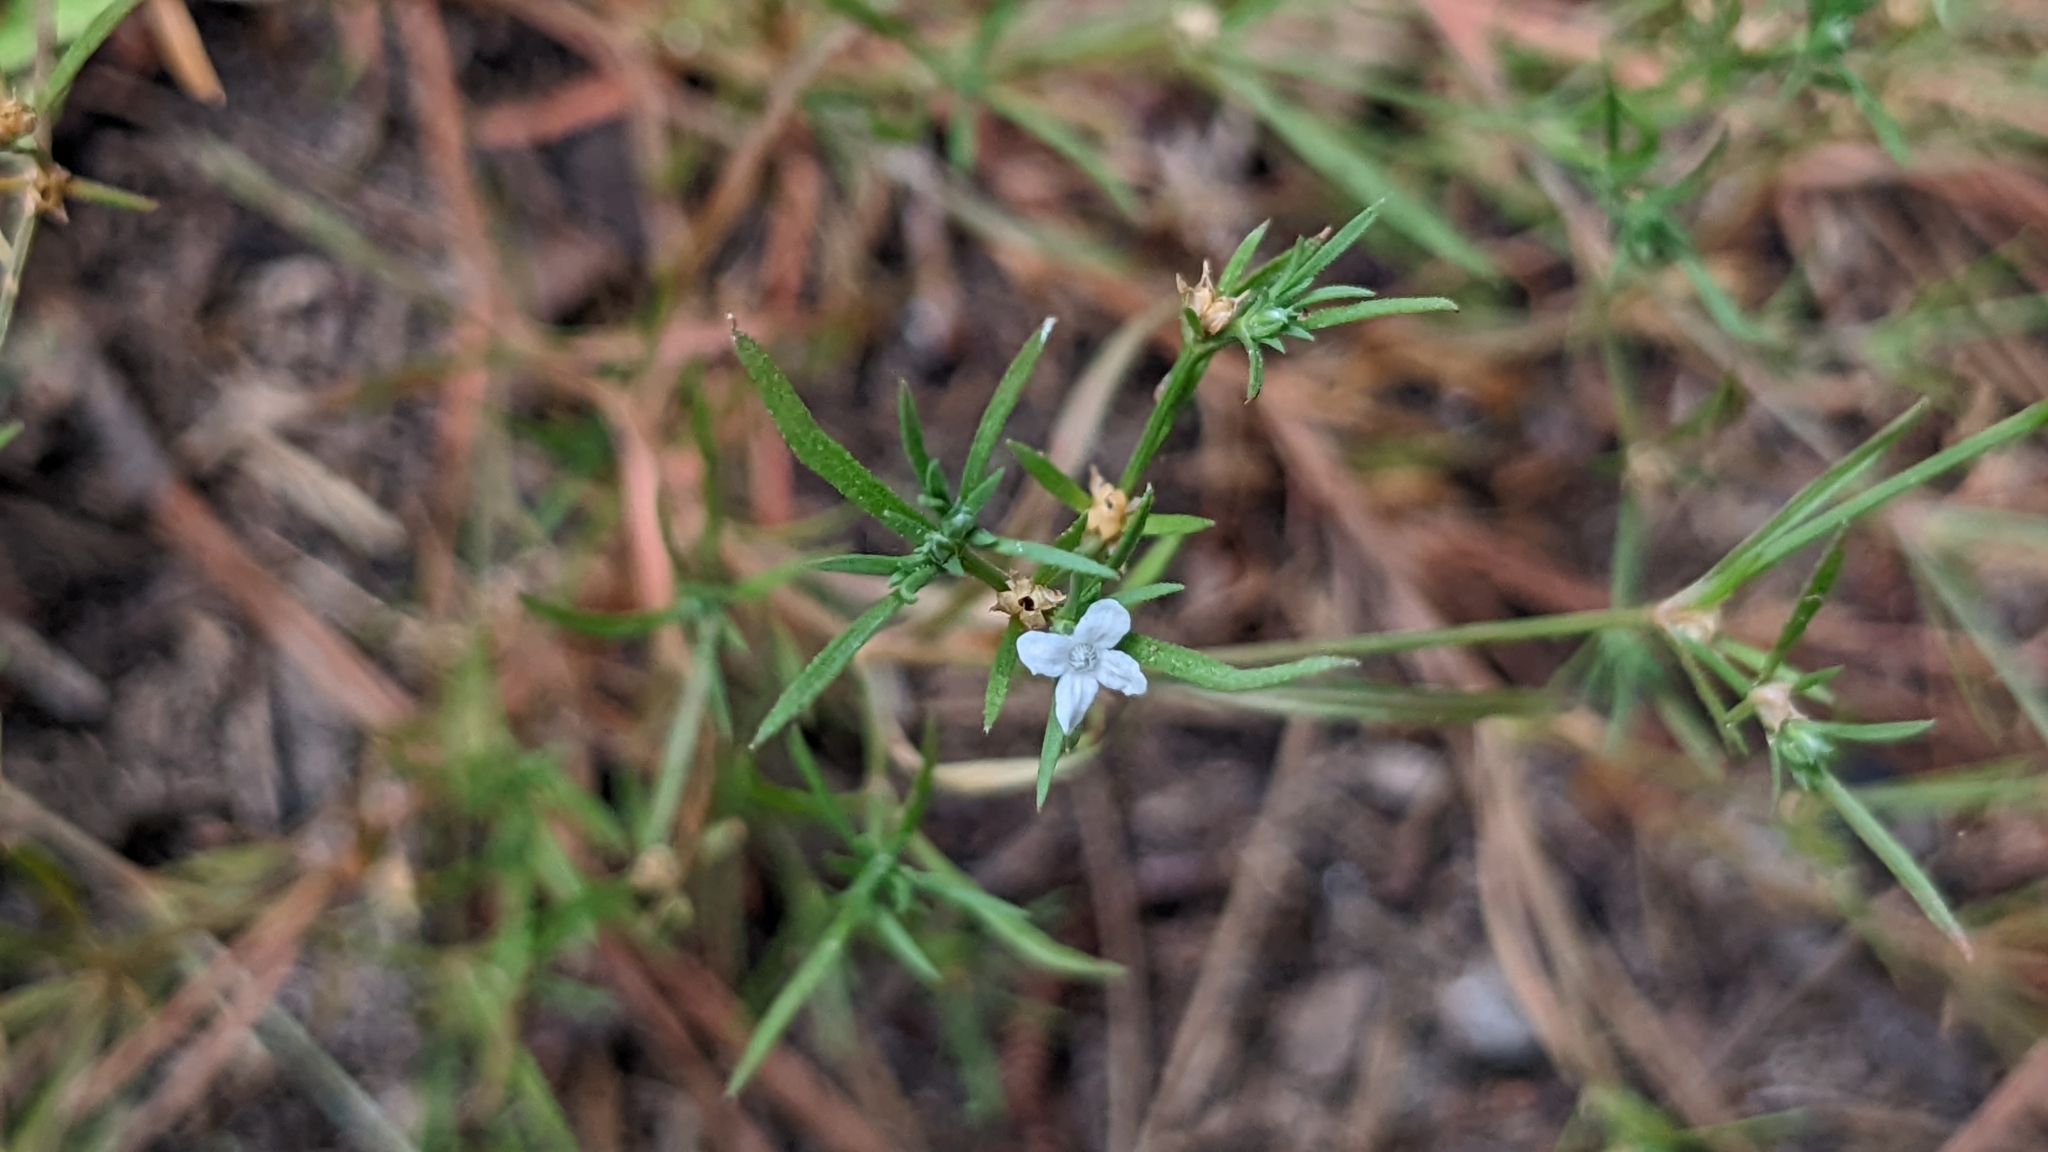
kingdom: Plantae
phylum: Tracheophyta
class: Magnoliopsida
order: Lamiales
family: Tetrachondraceae
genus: Polypremum
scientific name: Polypremum procumbens
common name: Juniper-leaf
